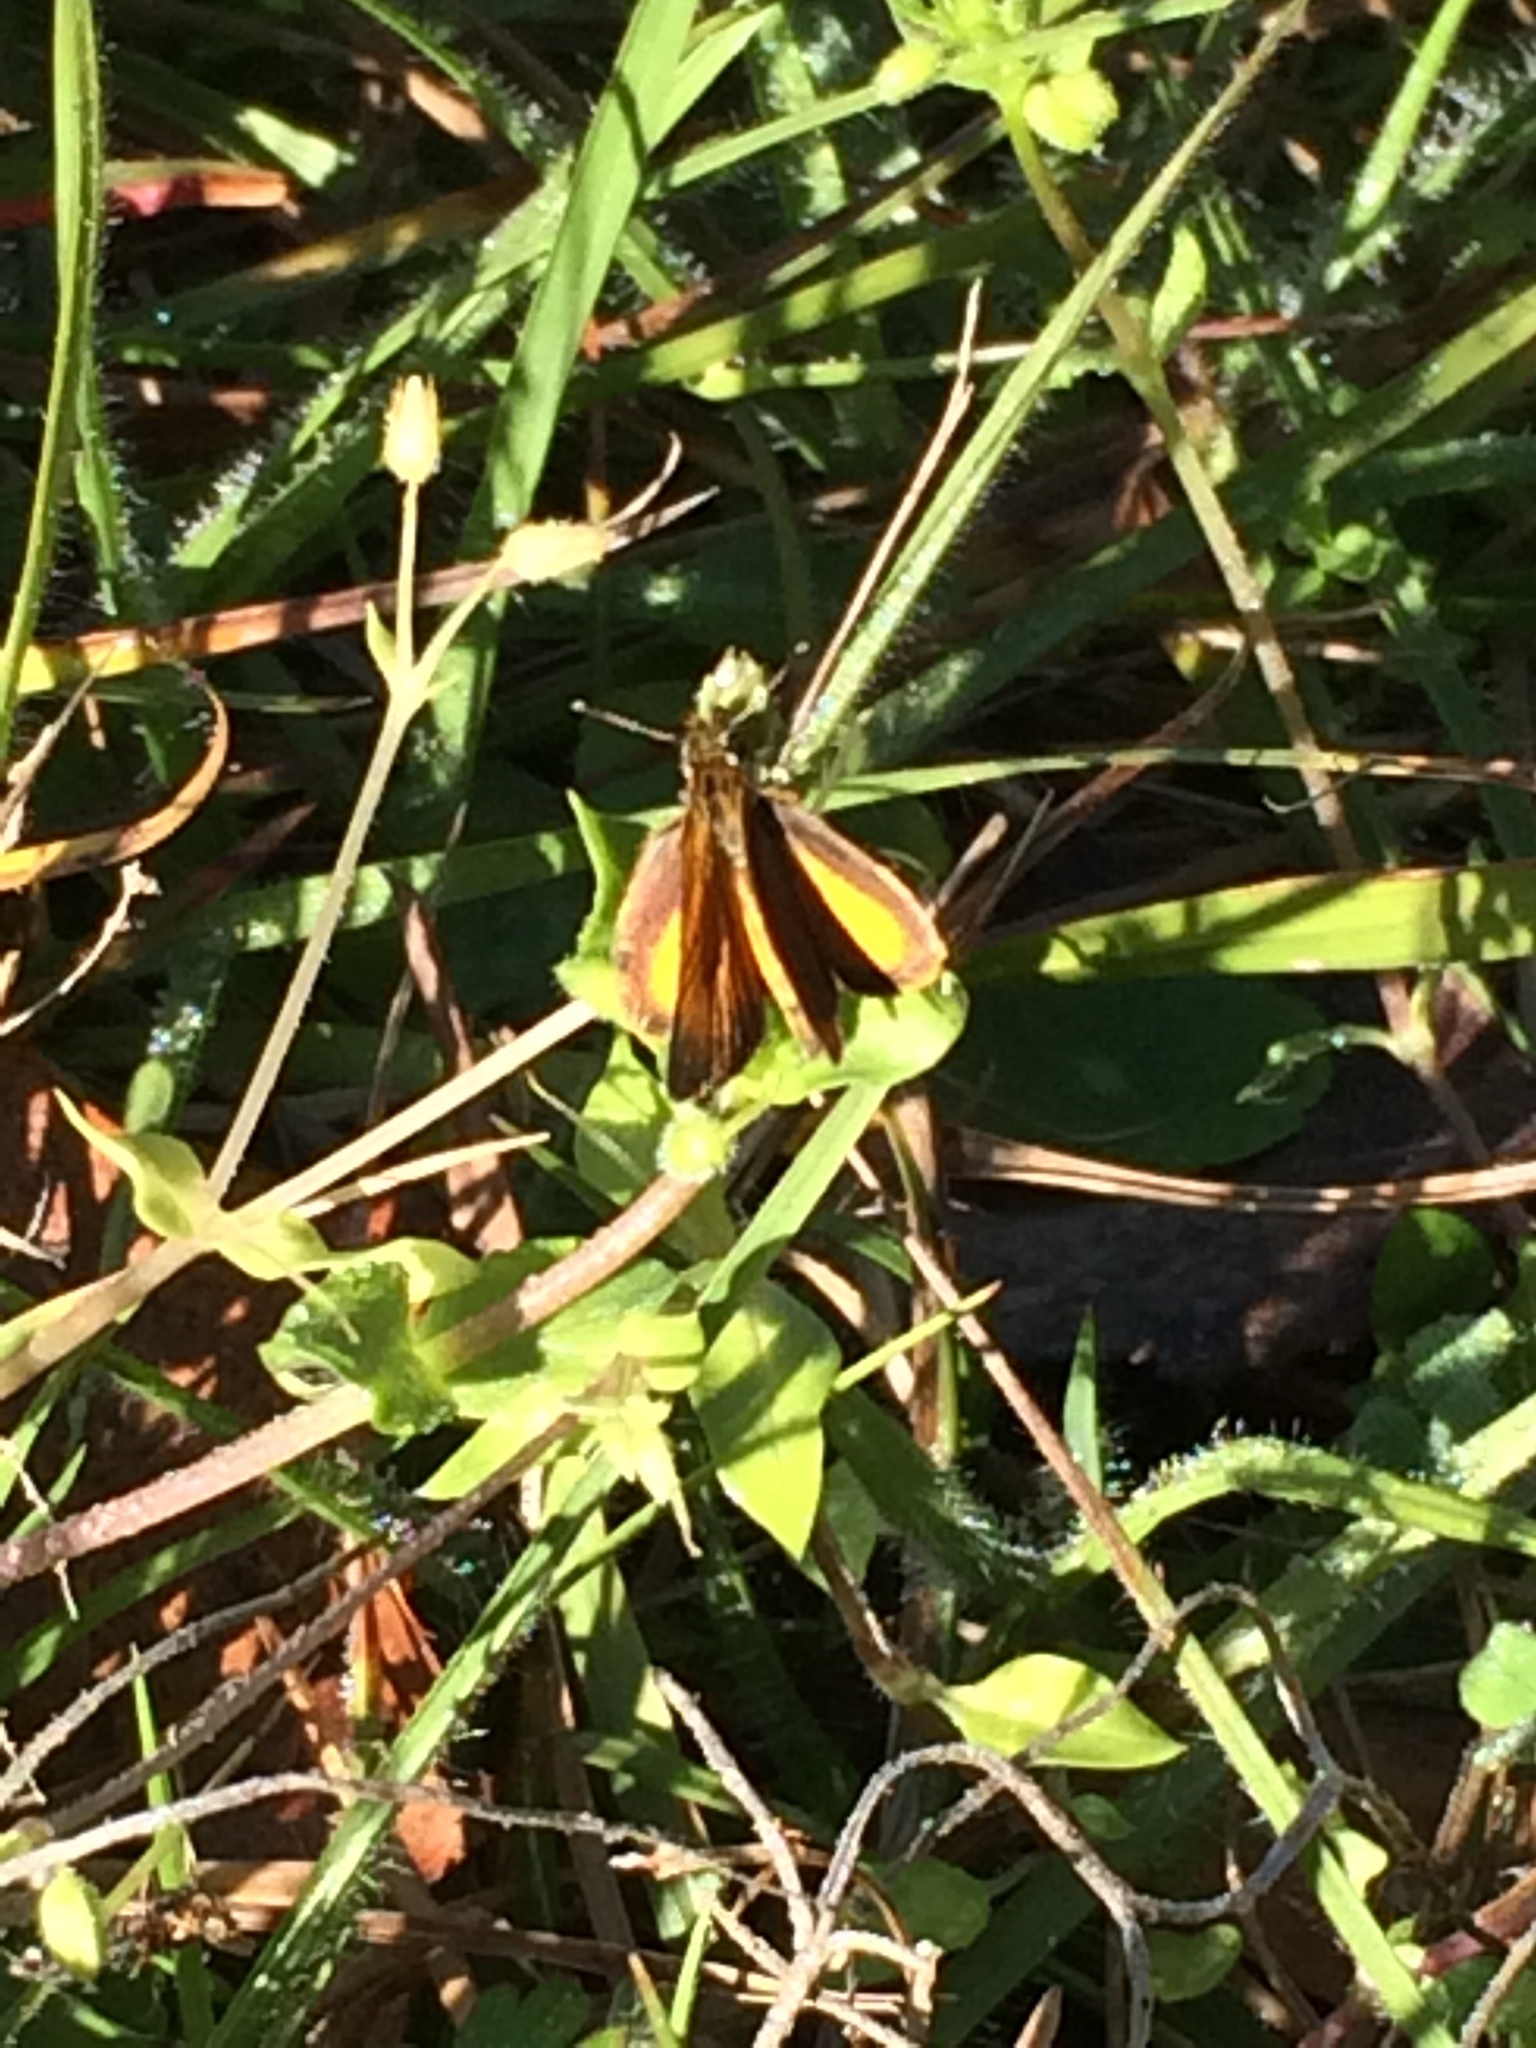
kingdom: Animalia
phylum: Arthropoda
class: Insecta
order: Lepidoptera
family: Hesperiidae
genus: Ancyloxypha
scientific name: Ancyloxypha numitor
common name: Least skipper
